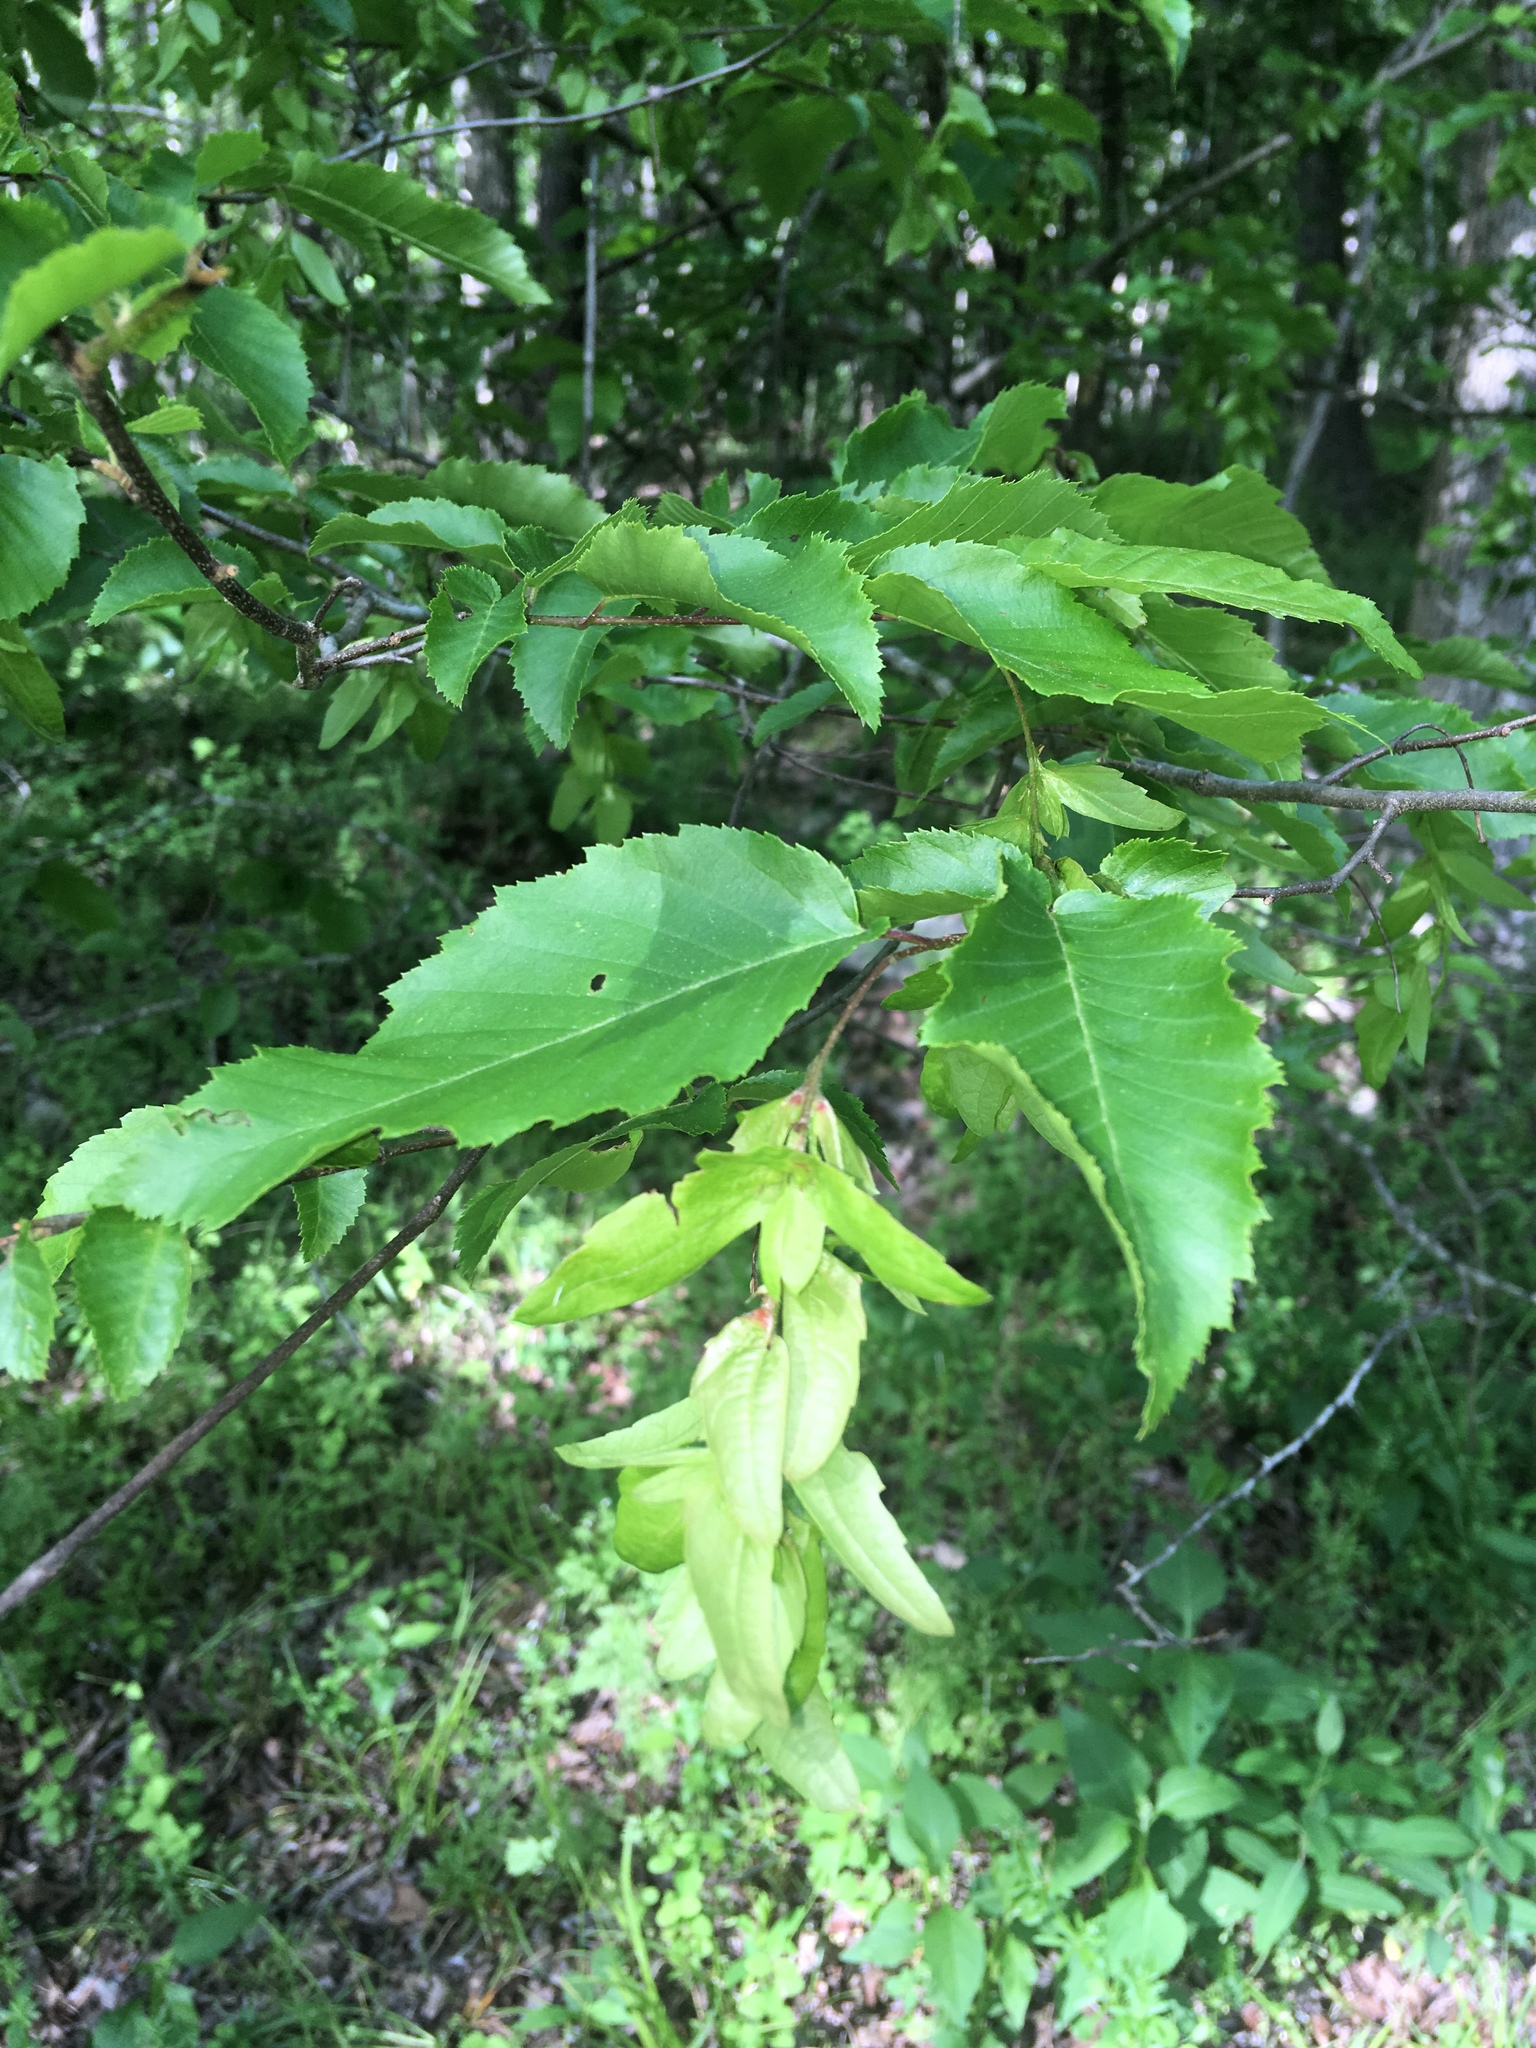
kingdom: Plantae
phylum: Tracheophyta
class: Magnoliopsida
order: Fagales
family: Betulaceae
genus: Carpinus
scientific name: Carpinus caroliniana
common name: American hornbeam
